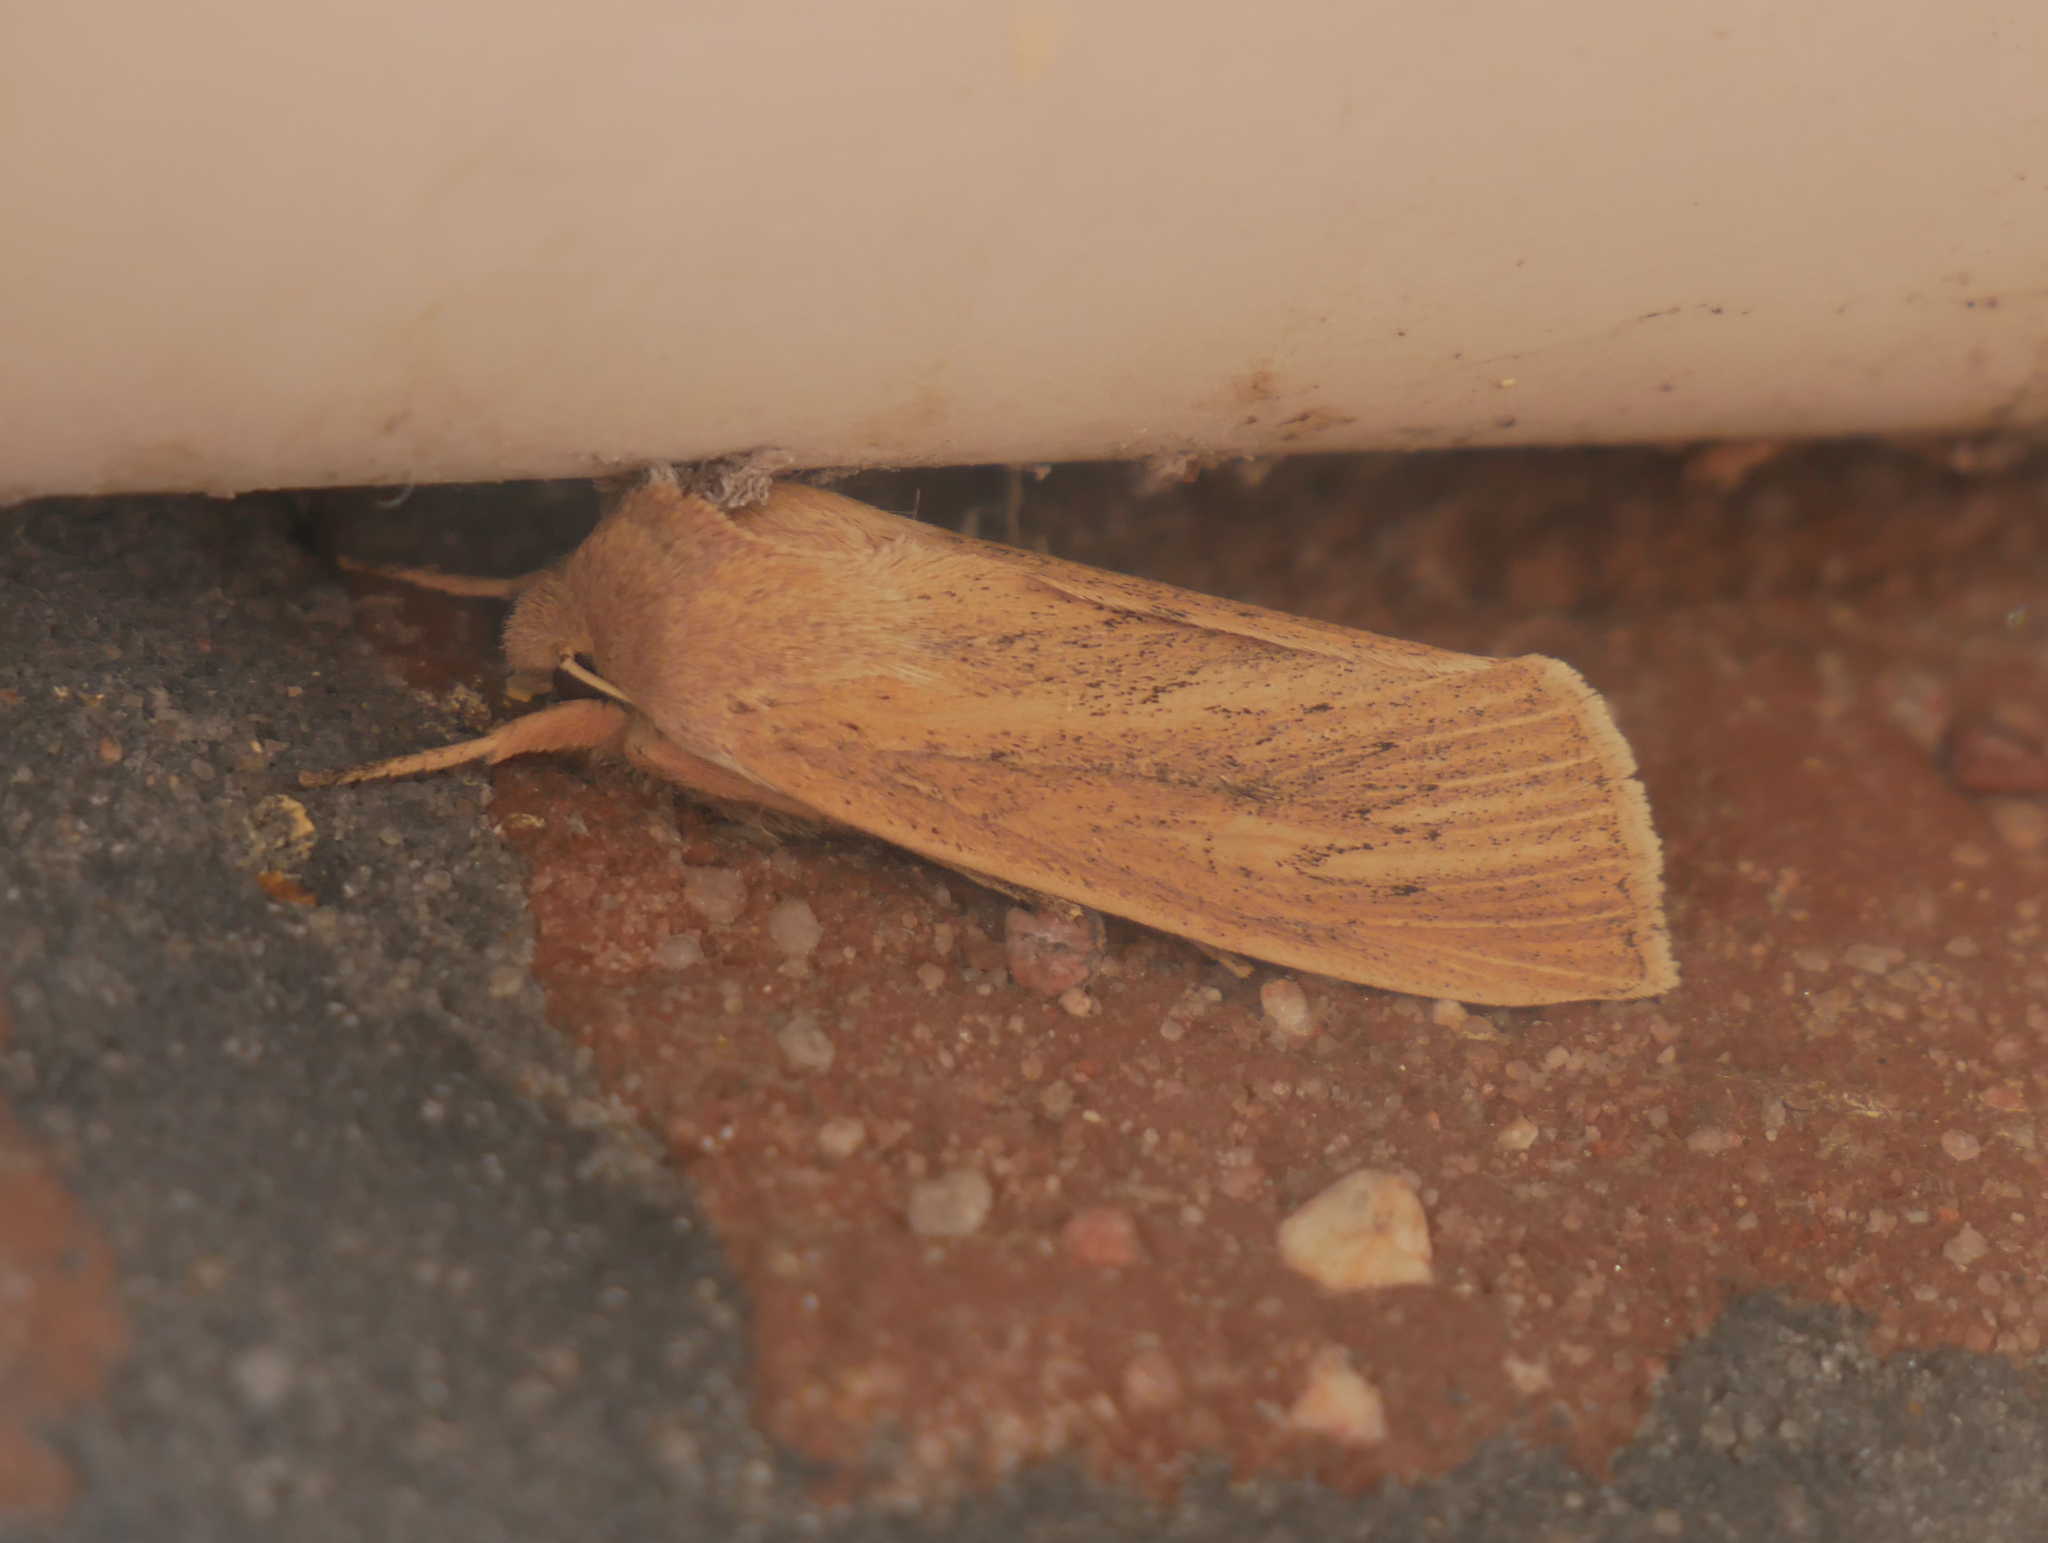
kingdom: Animalia
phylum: Arthropoda
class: Insecta
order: Lepidoptera
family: Noctuidae
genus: Rhizedra
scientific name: Rhizedra lutosa
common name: Large wainscot
